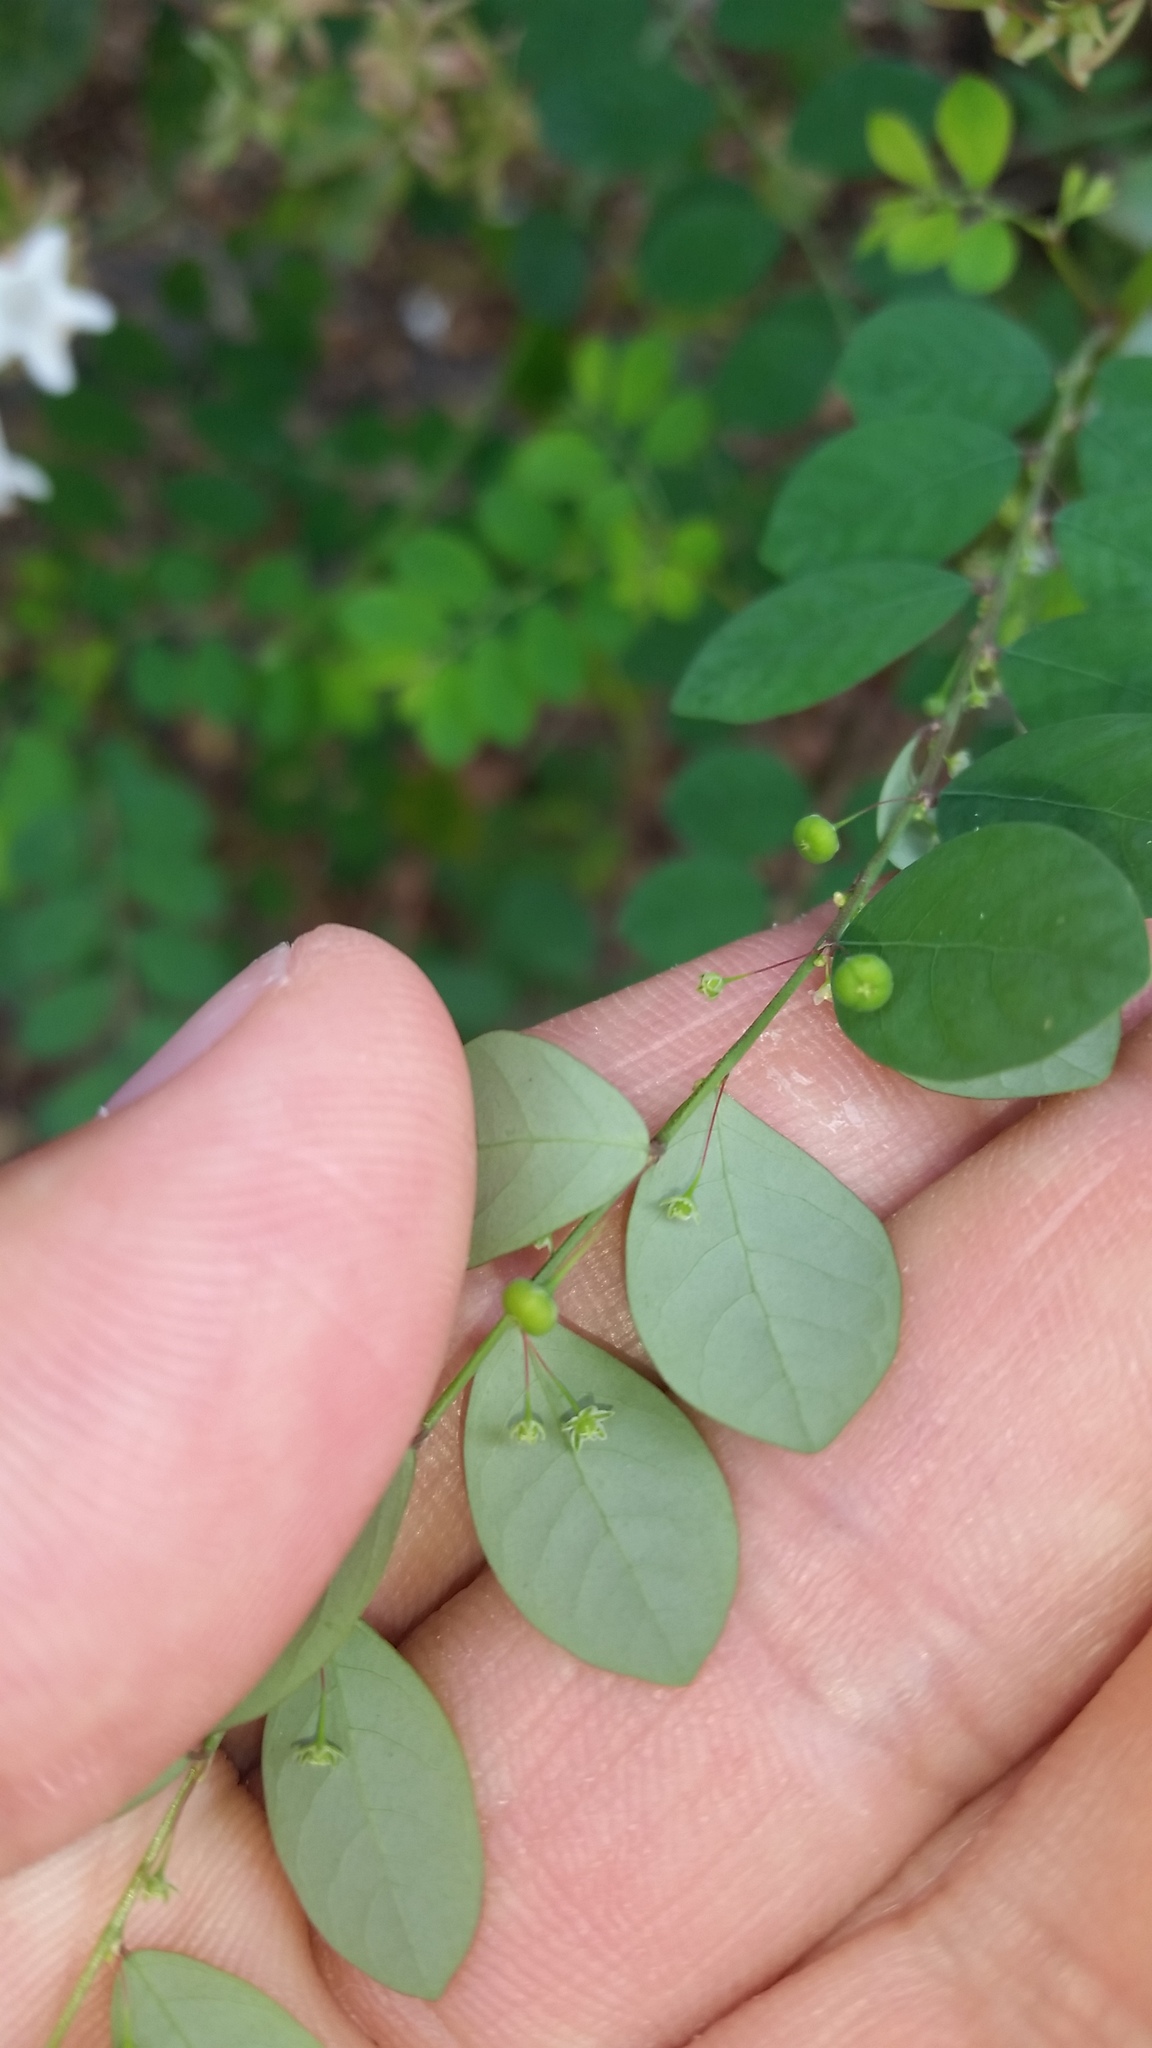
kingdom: Plantae
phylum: Tracheophyta
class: Magnoliopsida
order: Malpighiales
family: Phyllanthaceae
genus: Phyllanthus
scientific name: Phyllanthus tenellus
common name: Mascarene island leaf-flower
